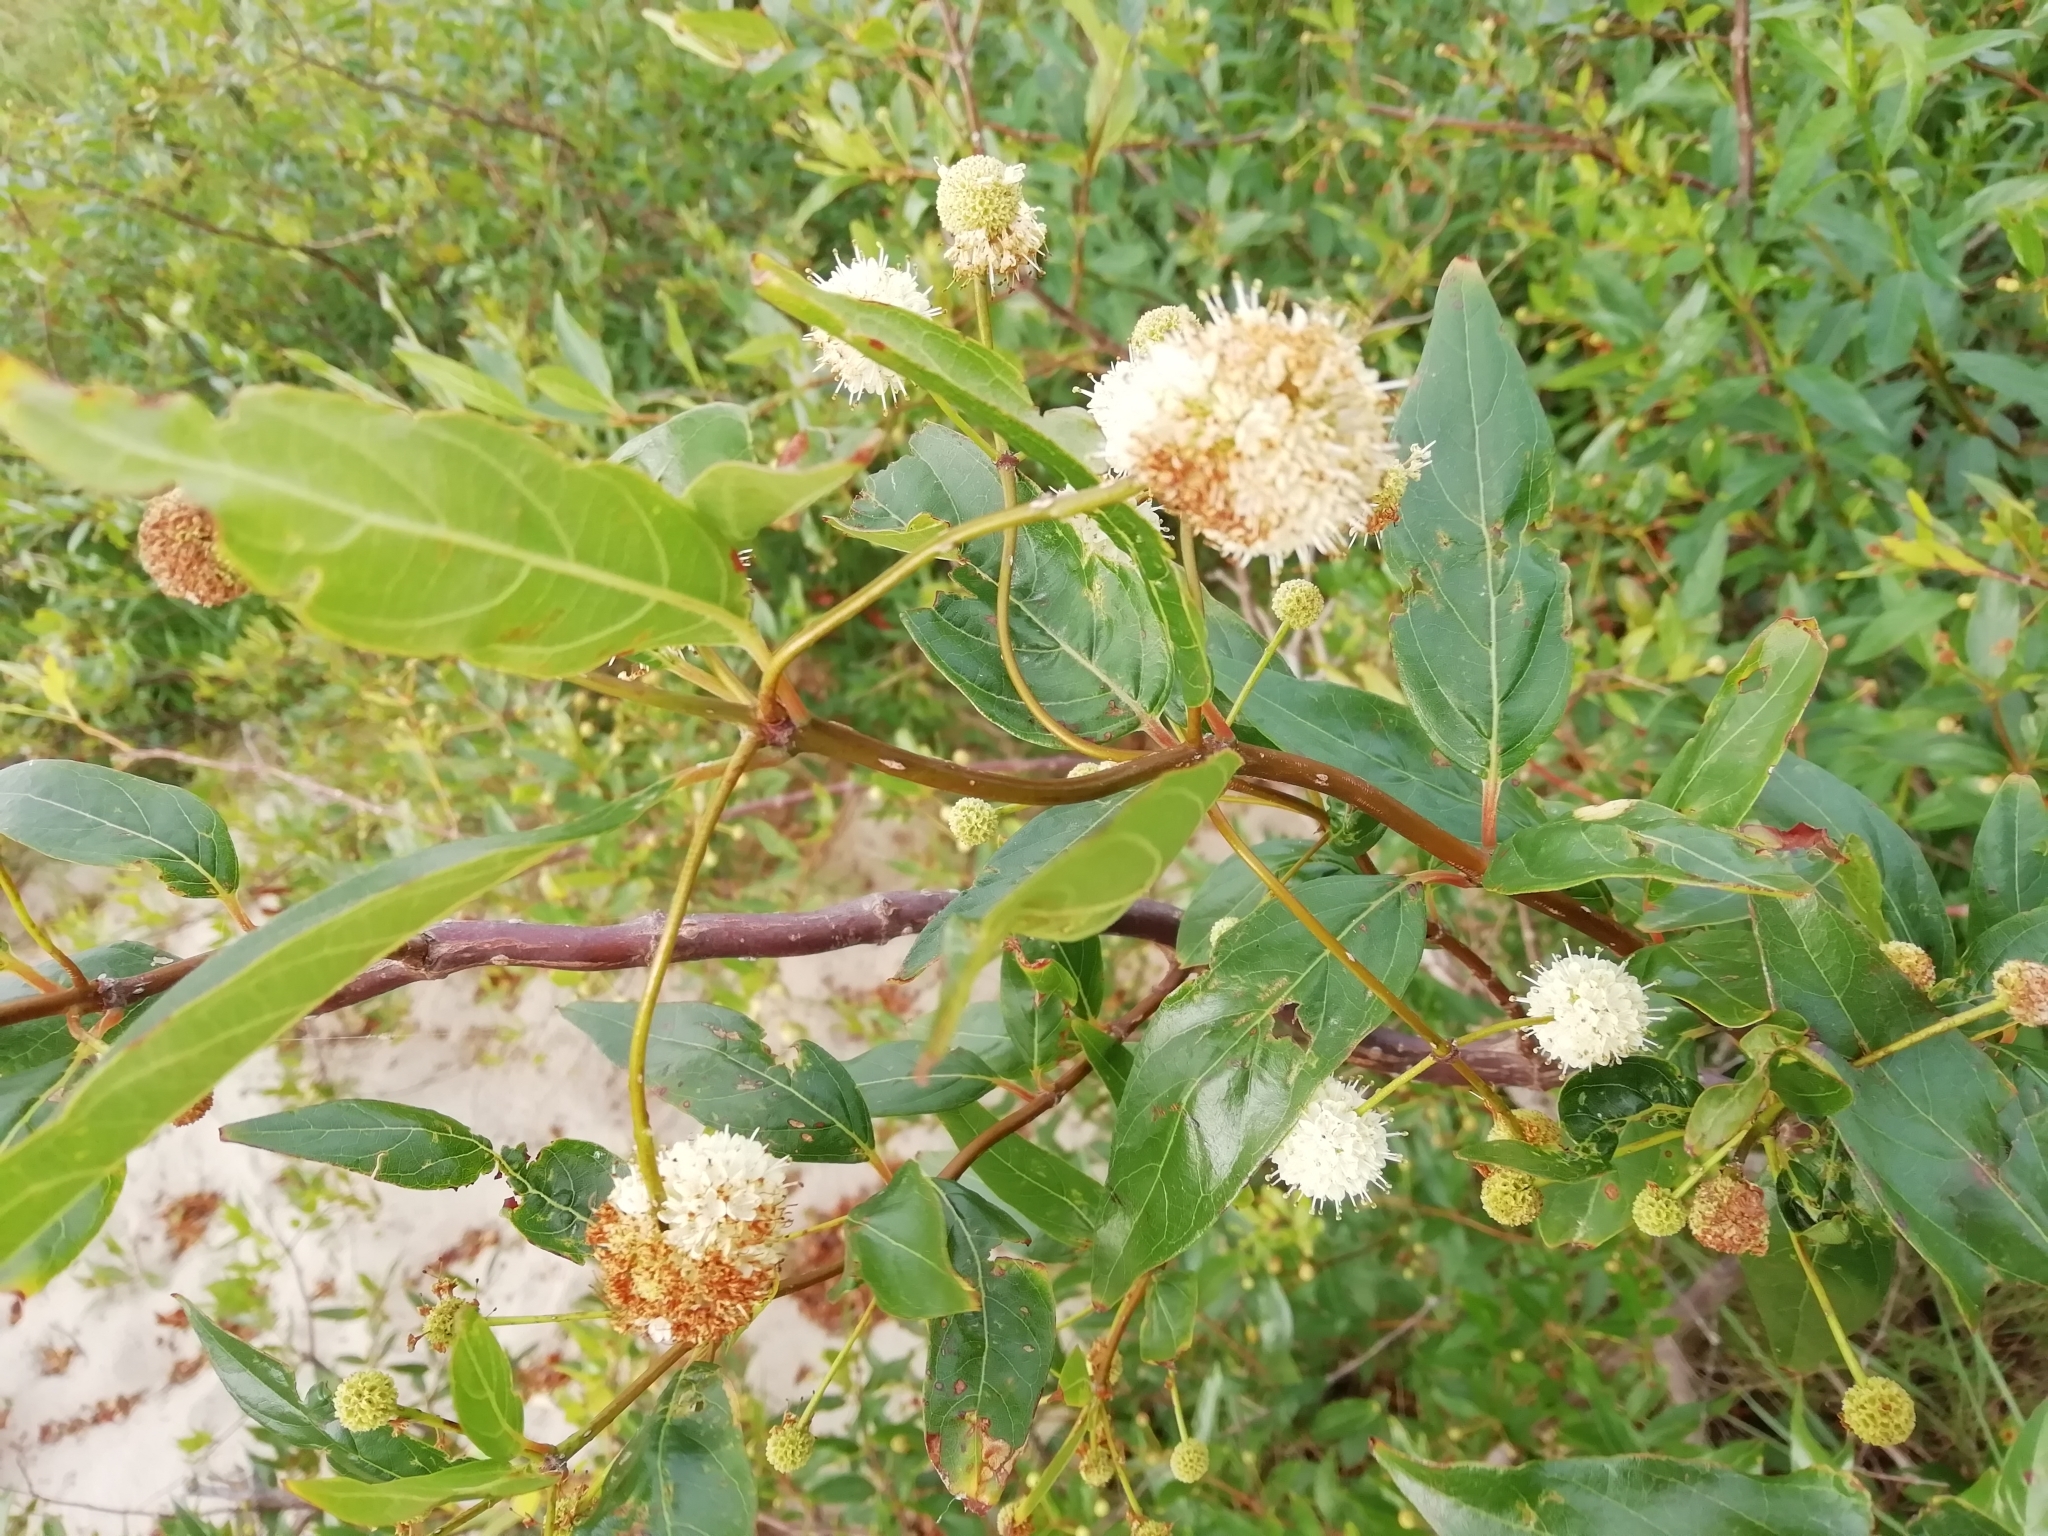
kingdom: Plantae
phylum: Tracheophyta
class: Magnoliopsida
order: Gentianales
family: Rubiaceae
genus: Cephalanthus
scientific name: Cephalanthus glabratus
